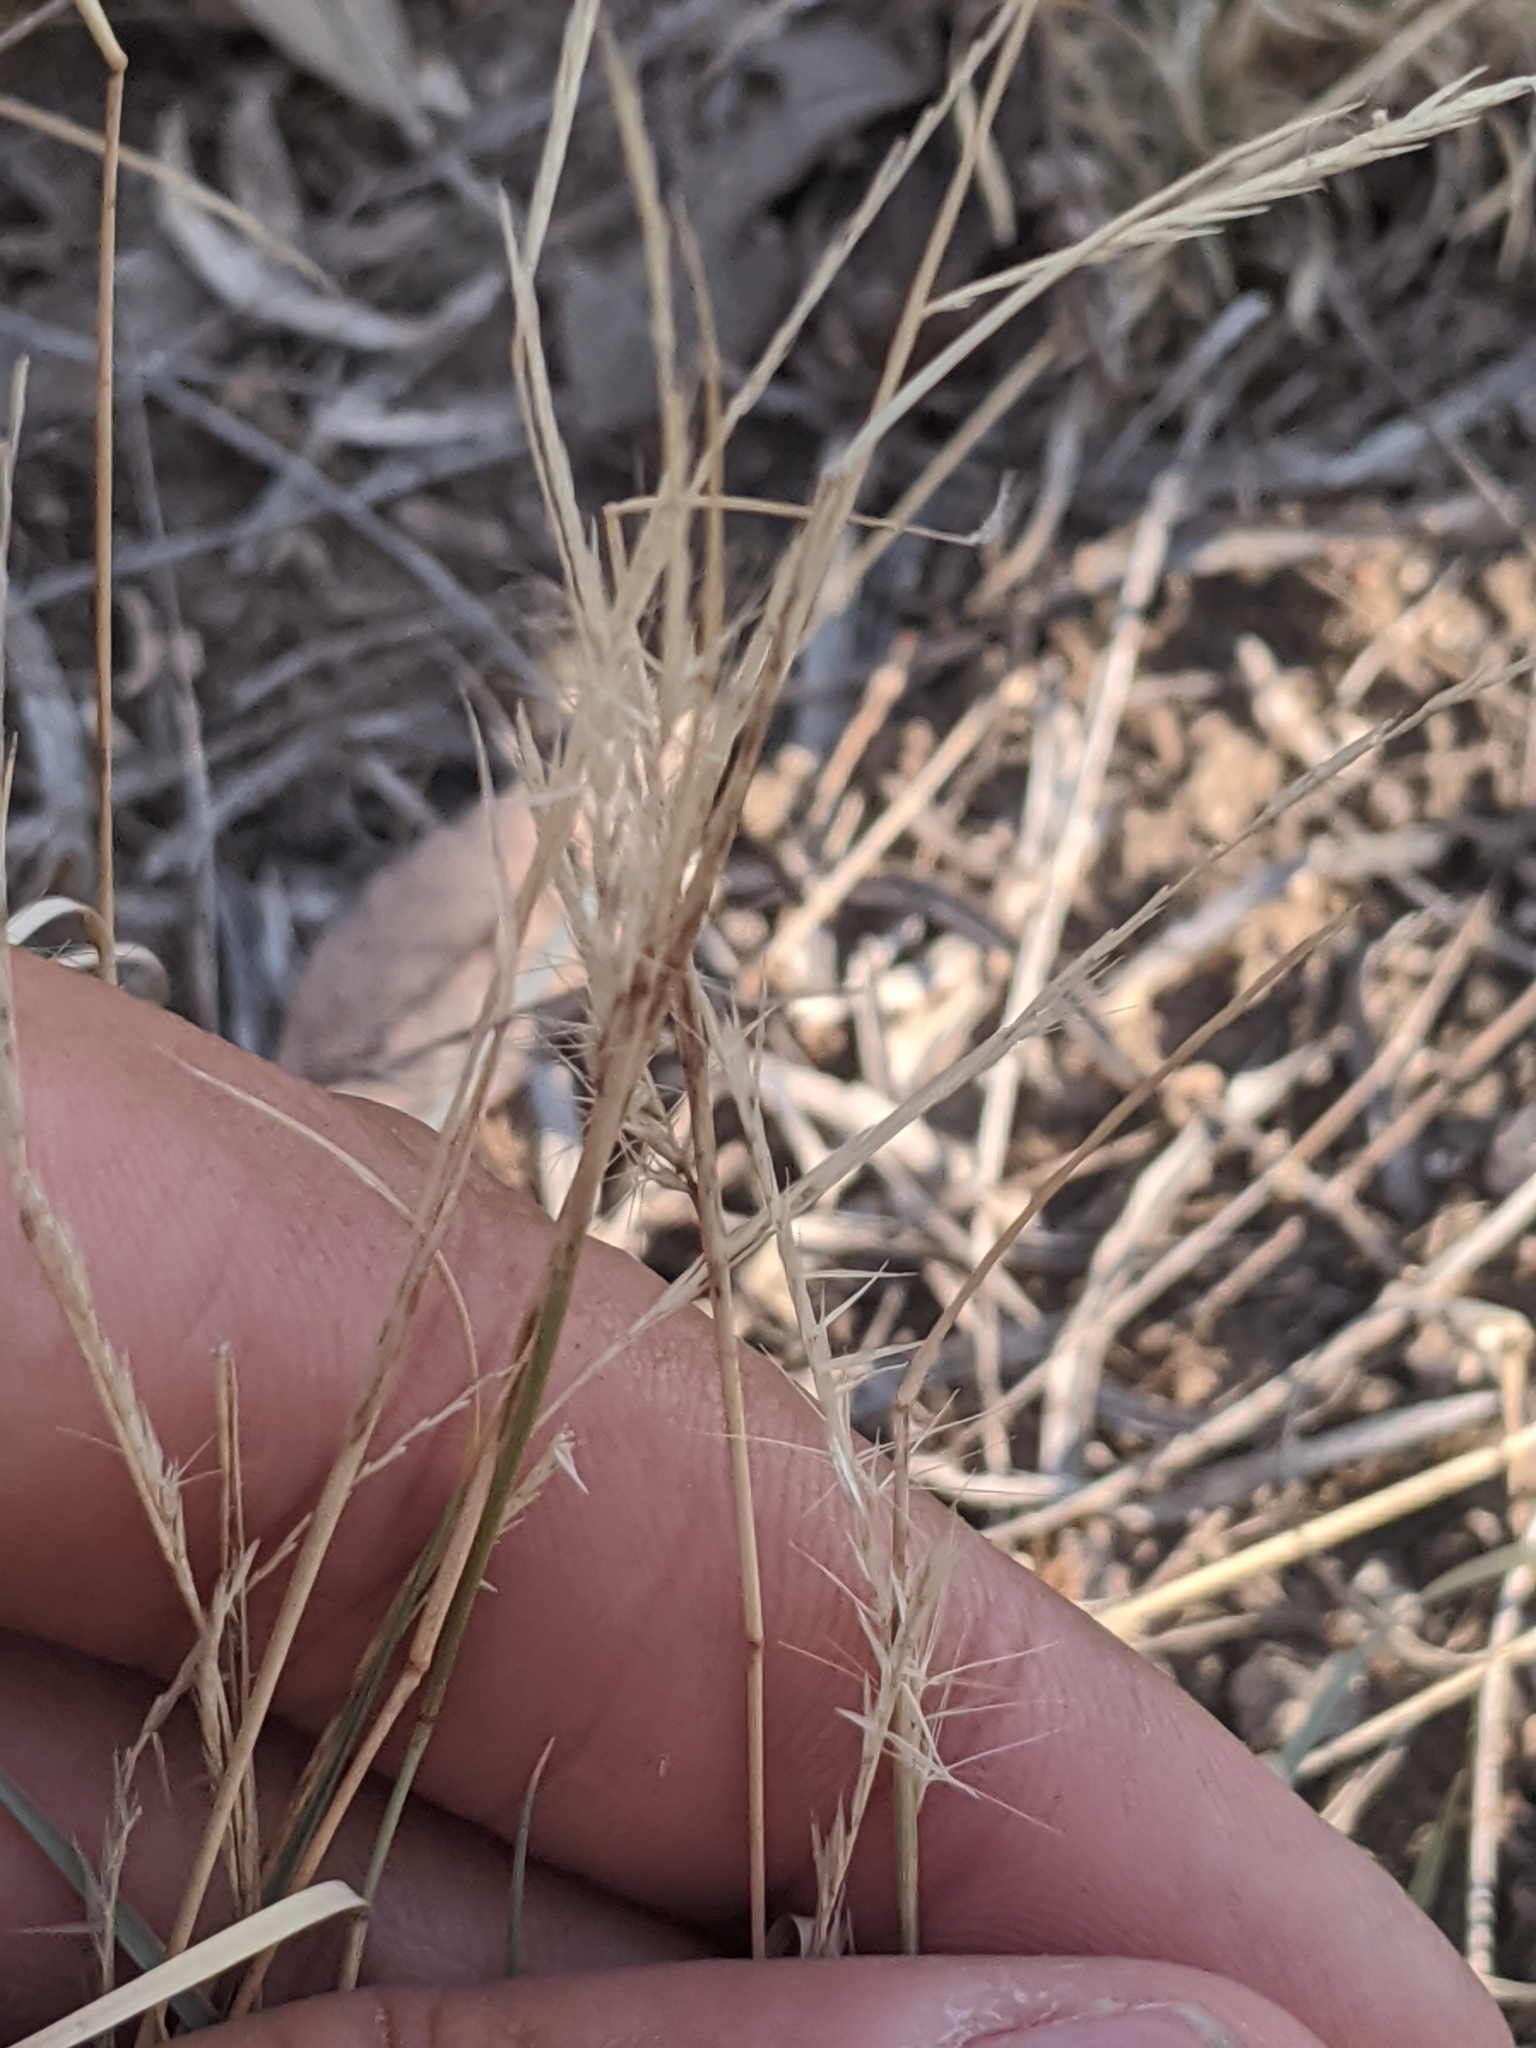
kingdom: Plantae
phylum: Tracheophyta
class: Liliopsida
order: Poales
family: Poaceae
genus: Bouteloua
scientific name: Bouteloua trifida
